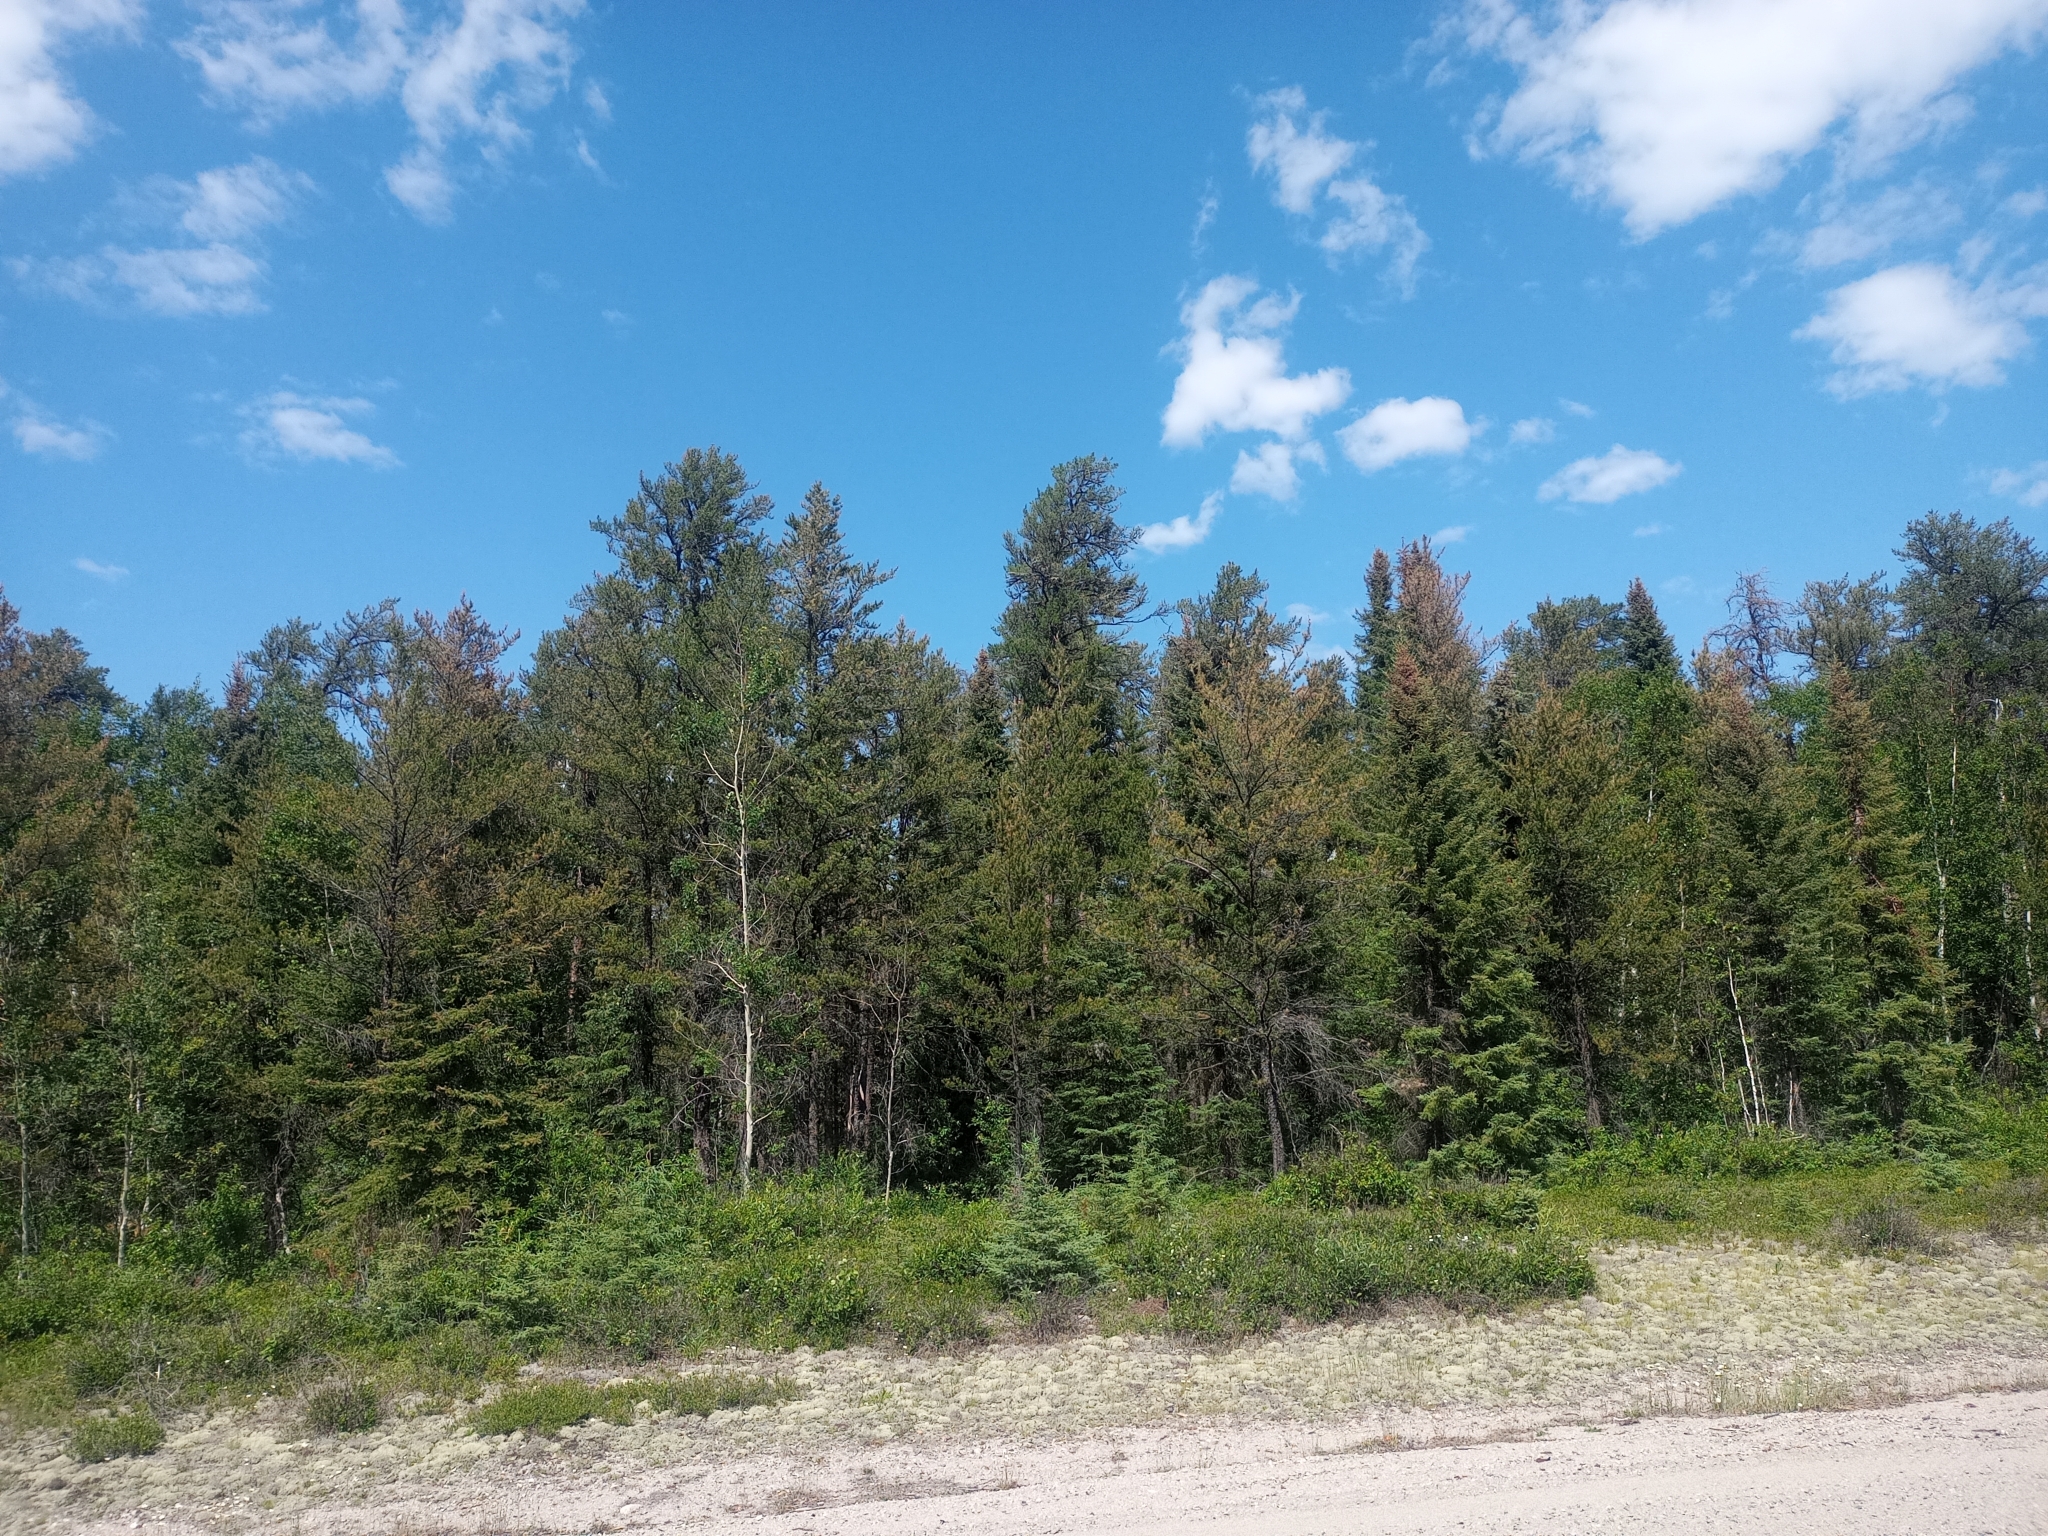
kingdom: Plantae
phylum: Tracheophyta
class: Pinopsida
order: Pinales
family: Pinaceae
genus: Pinus
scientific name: Pinus banksiana
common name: Jack pine
